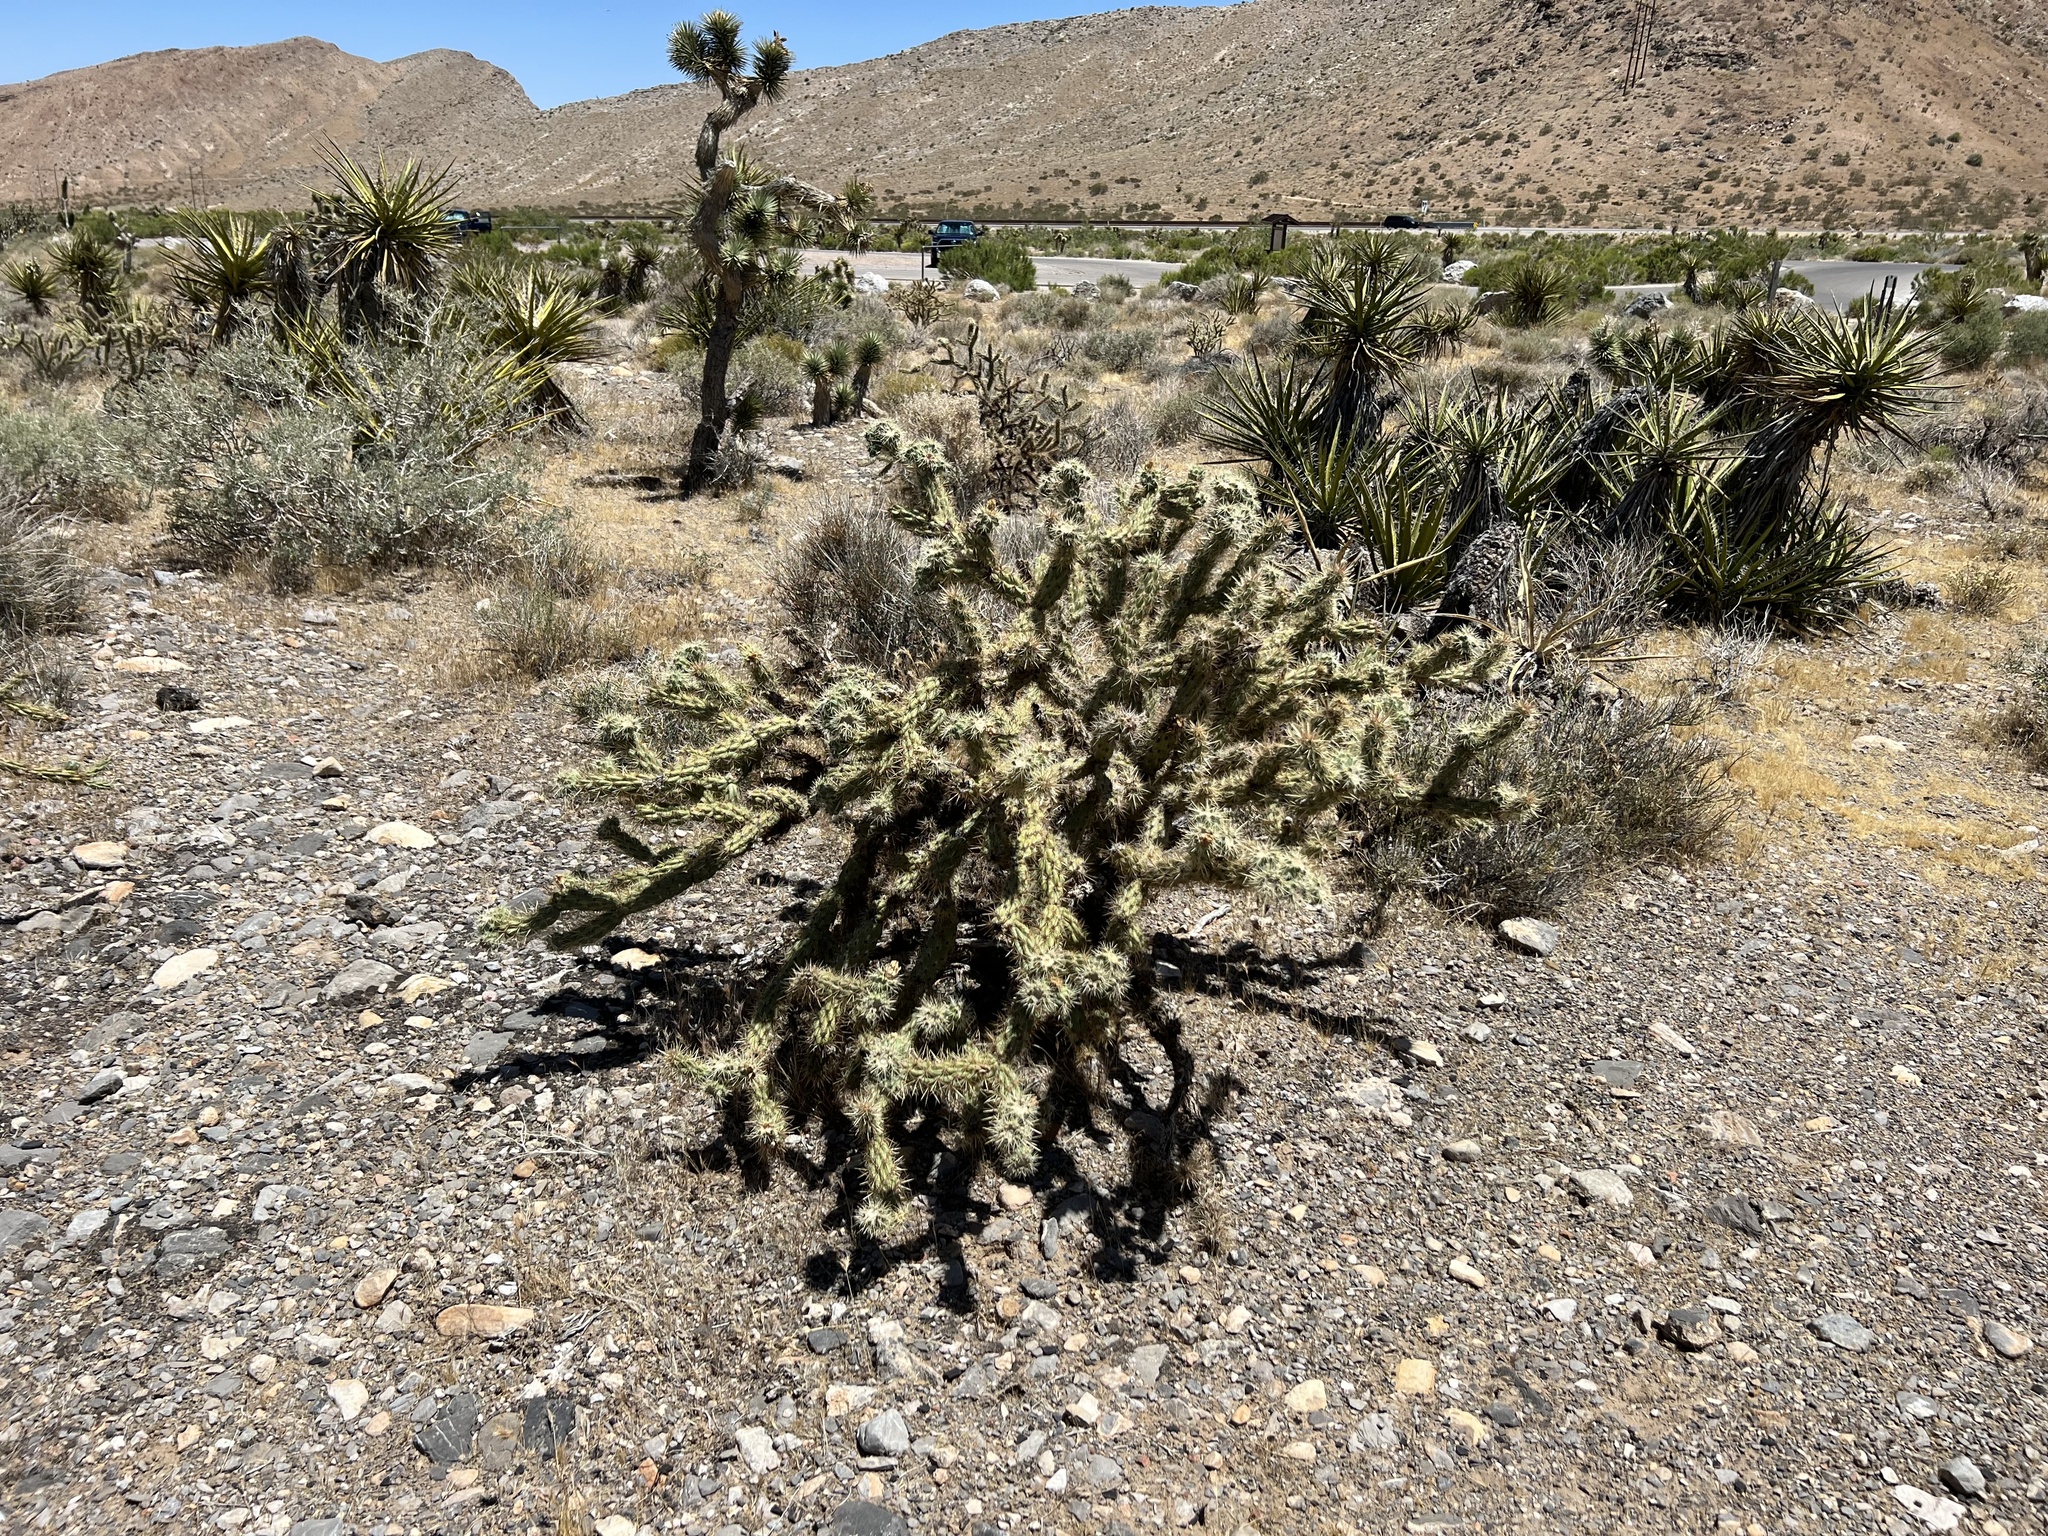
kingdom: Plantae
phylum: Tracheophyta
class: Magnoliopsida
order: Caryophyllales
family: Cactaceae
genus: Cylindropuntia
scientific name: Cylindropuntia acanthocarpa
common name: Buckhorn cholla
